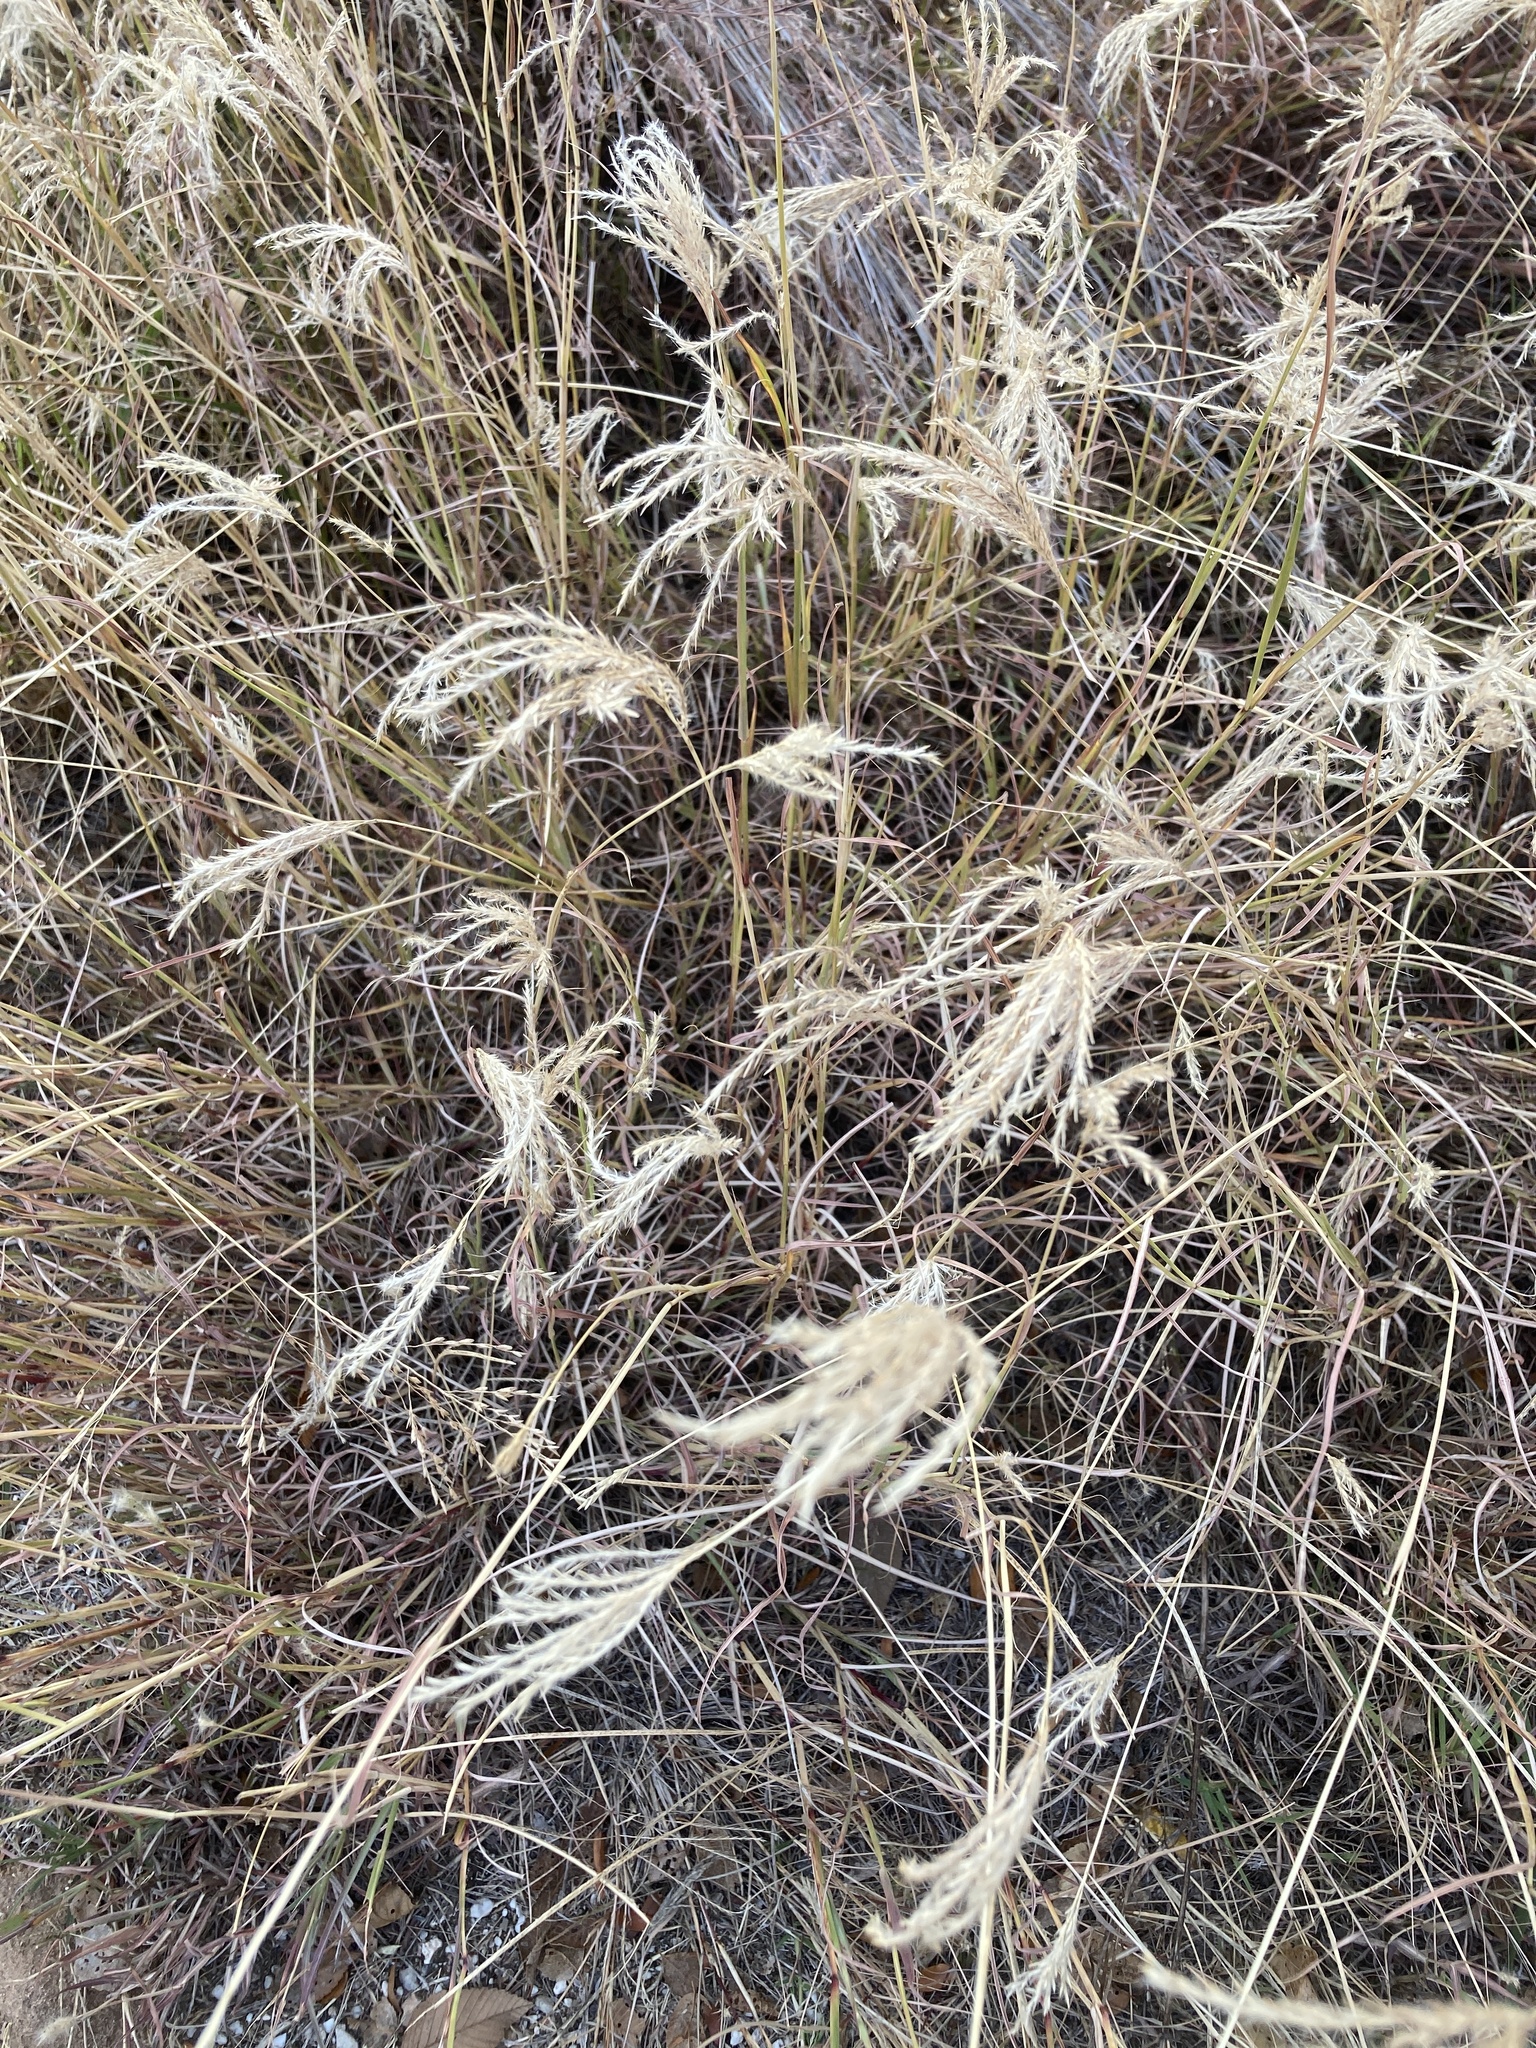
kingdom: Plantae
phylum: Tracheophyta
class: Liliopsida
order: Poales
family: Poaceae
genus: Bothriochloa
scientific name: Bothriochloa ischaemum
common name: Yellow bluestem
